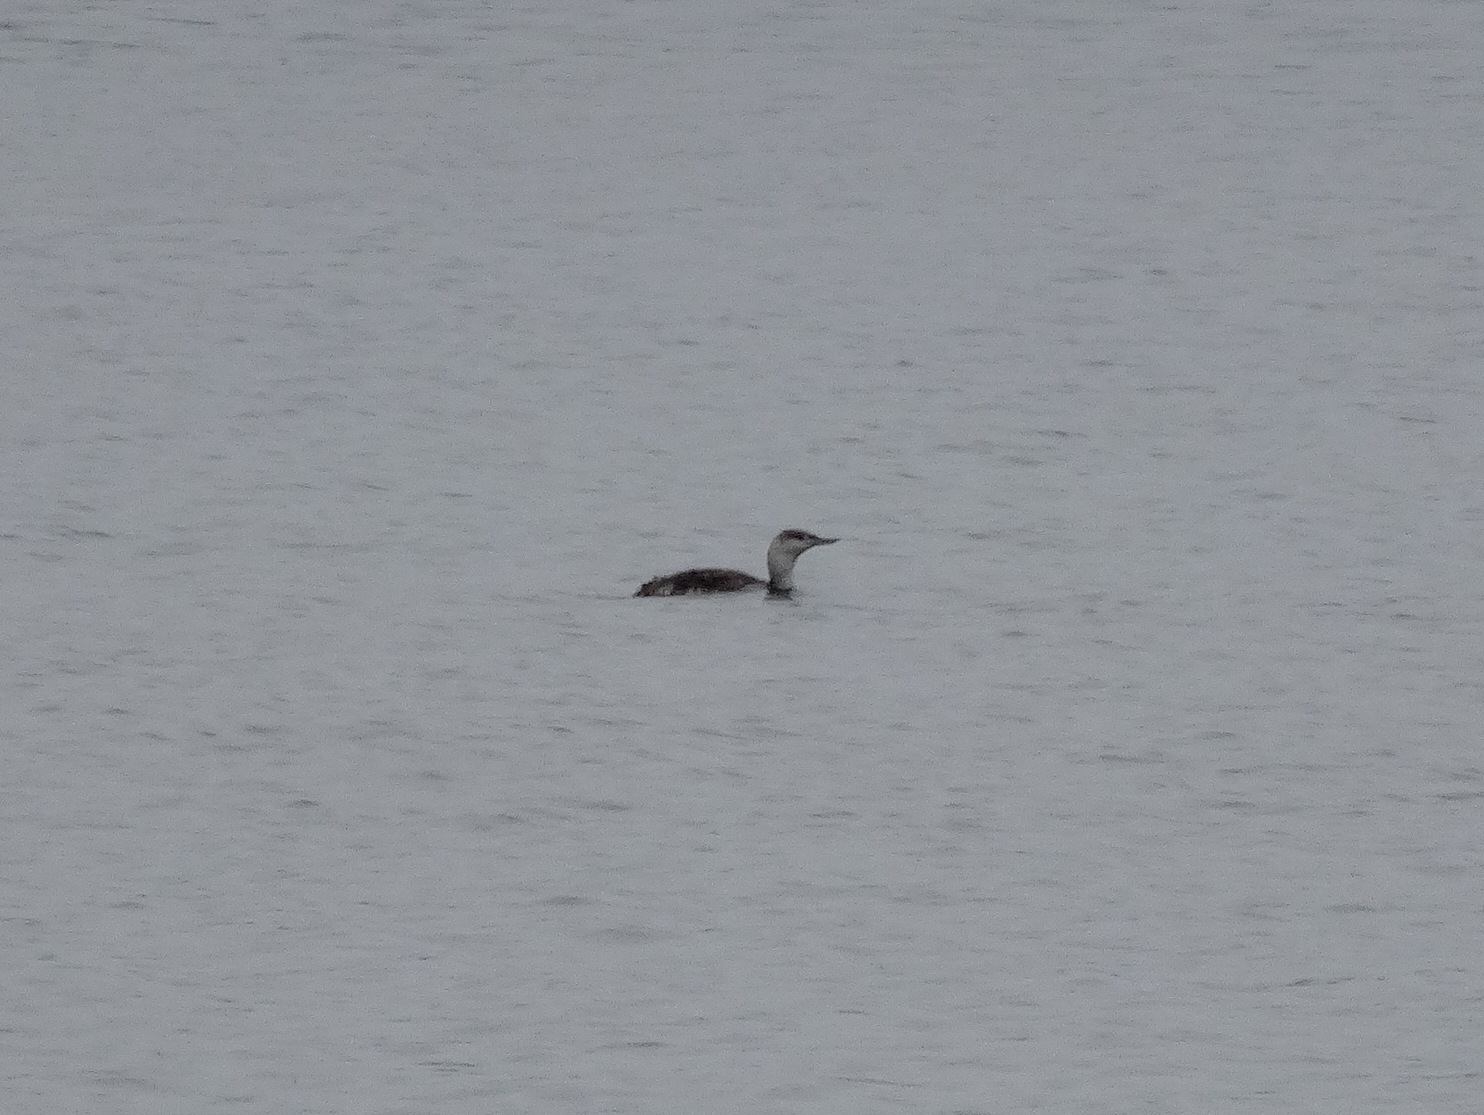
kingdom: Animalia
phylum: Chordata
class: Aves
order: Gaviiformes
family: Gaviidae
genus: Gavia
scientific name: Gavia stellata
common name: Red-throated loon
